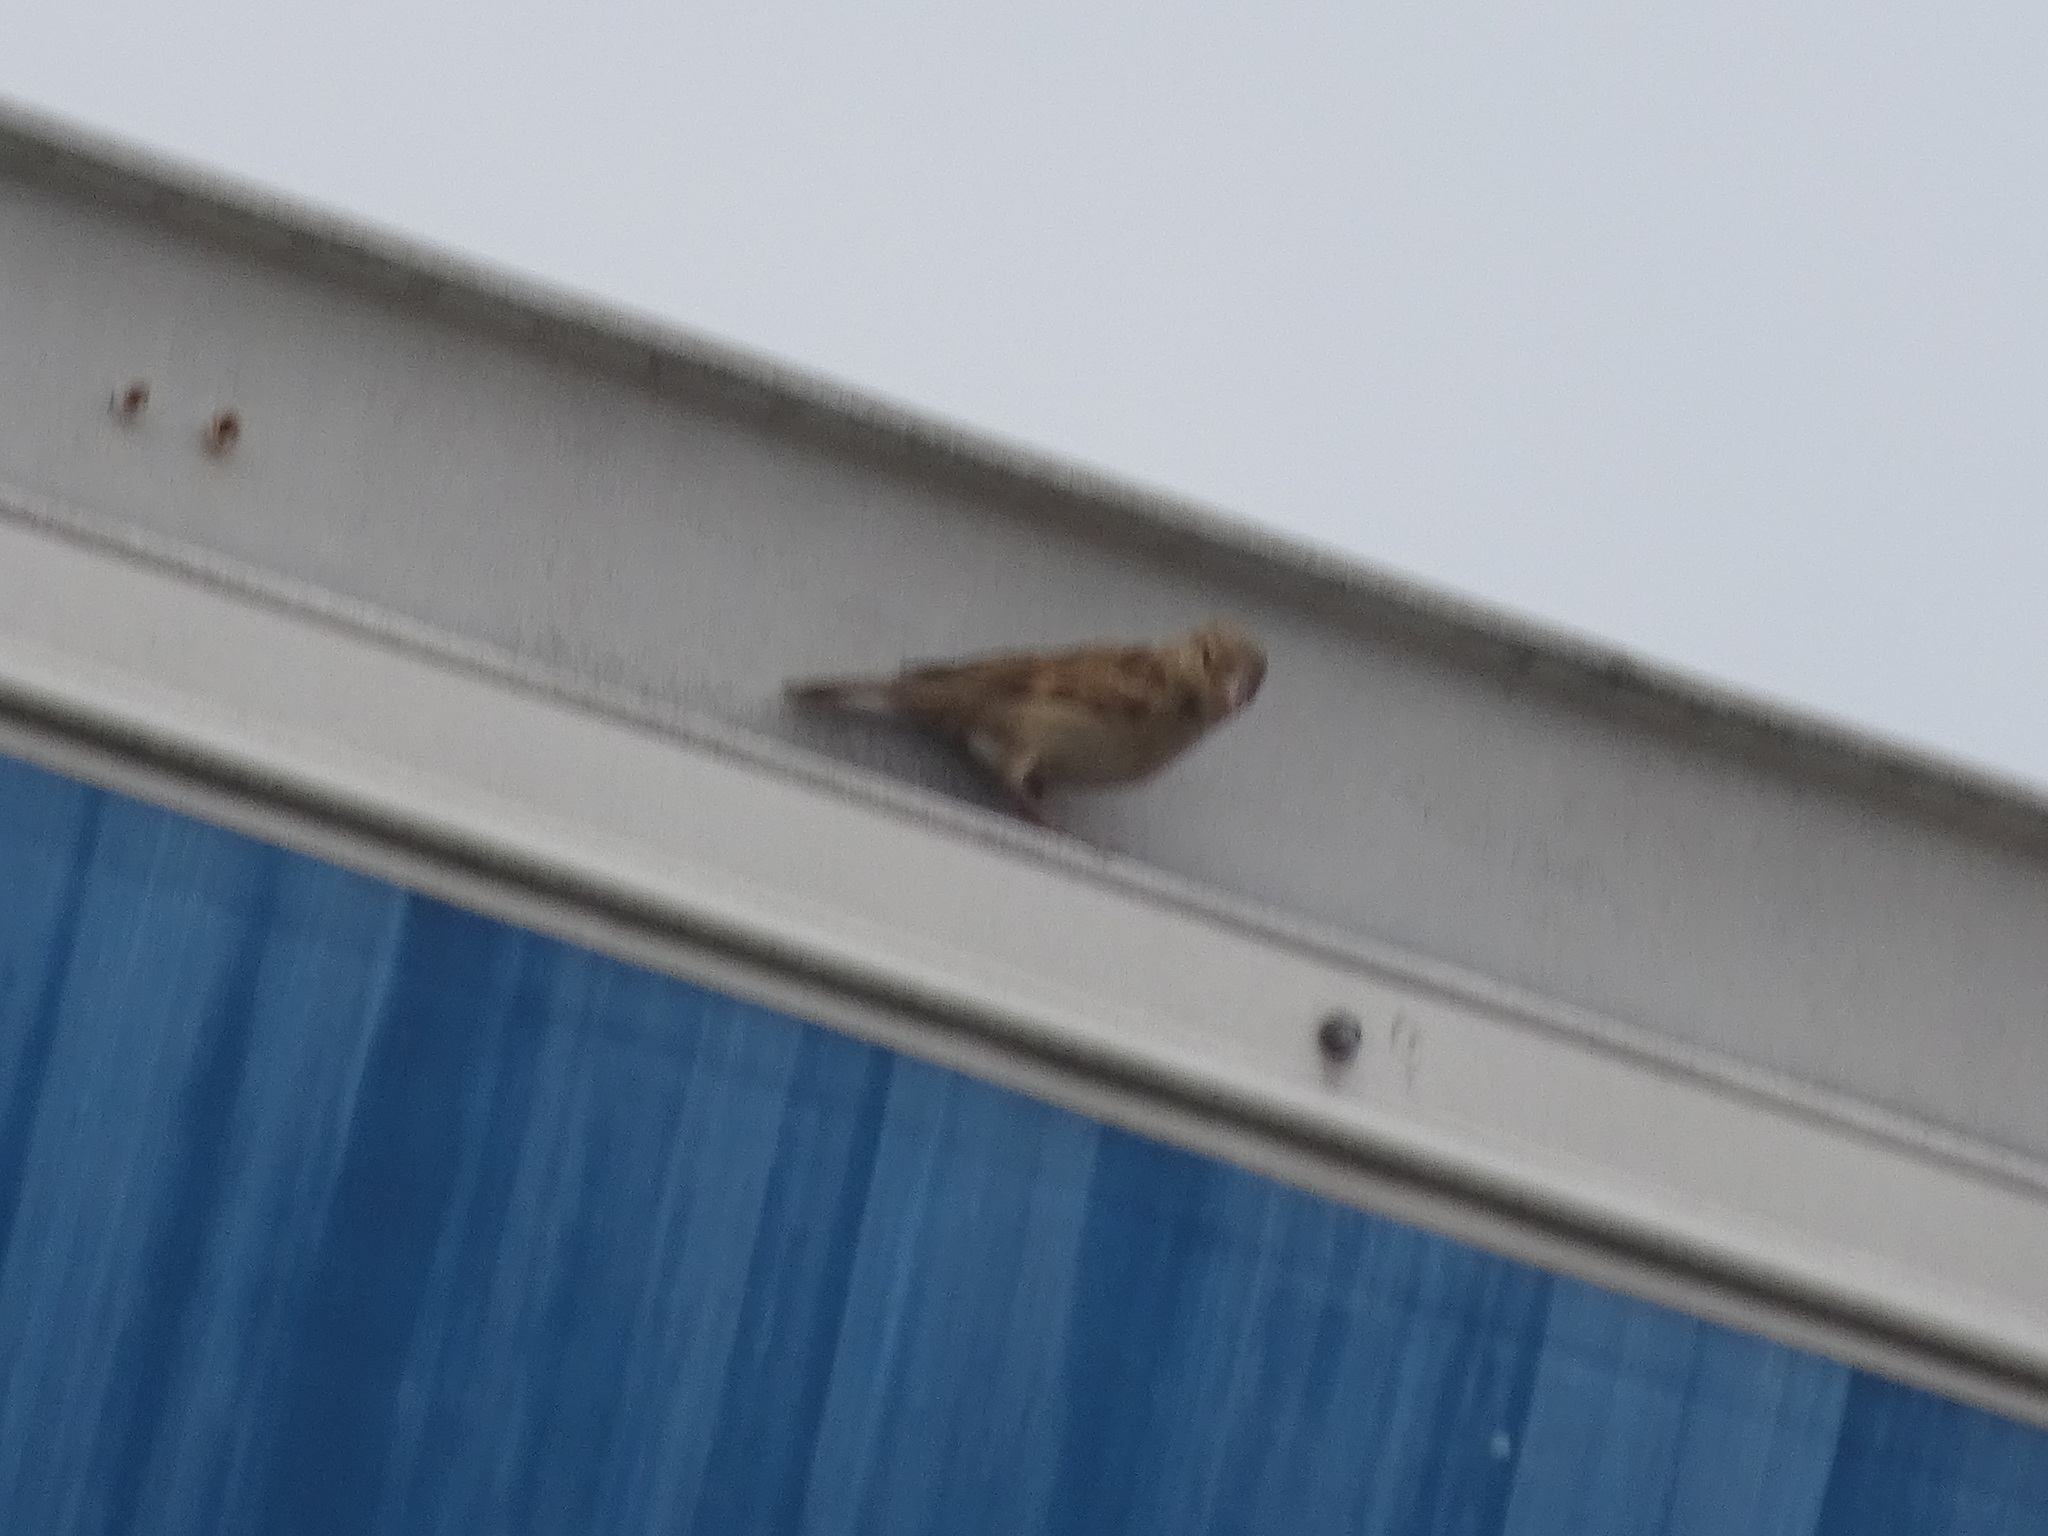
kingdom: Animalia
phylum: Chordata
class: Aves
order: Passeriformes
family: Passeridae
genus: Passer
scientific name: Passer domesticus
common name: House sparrow
